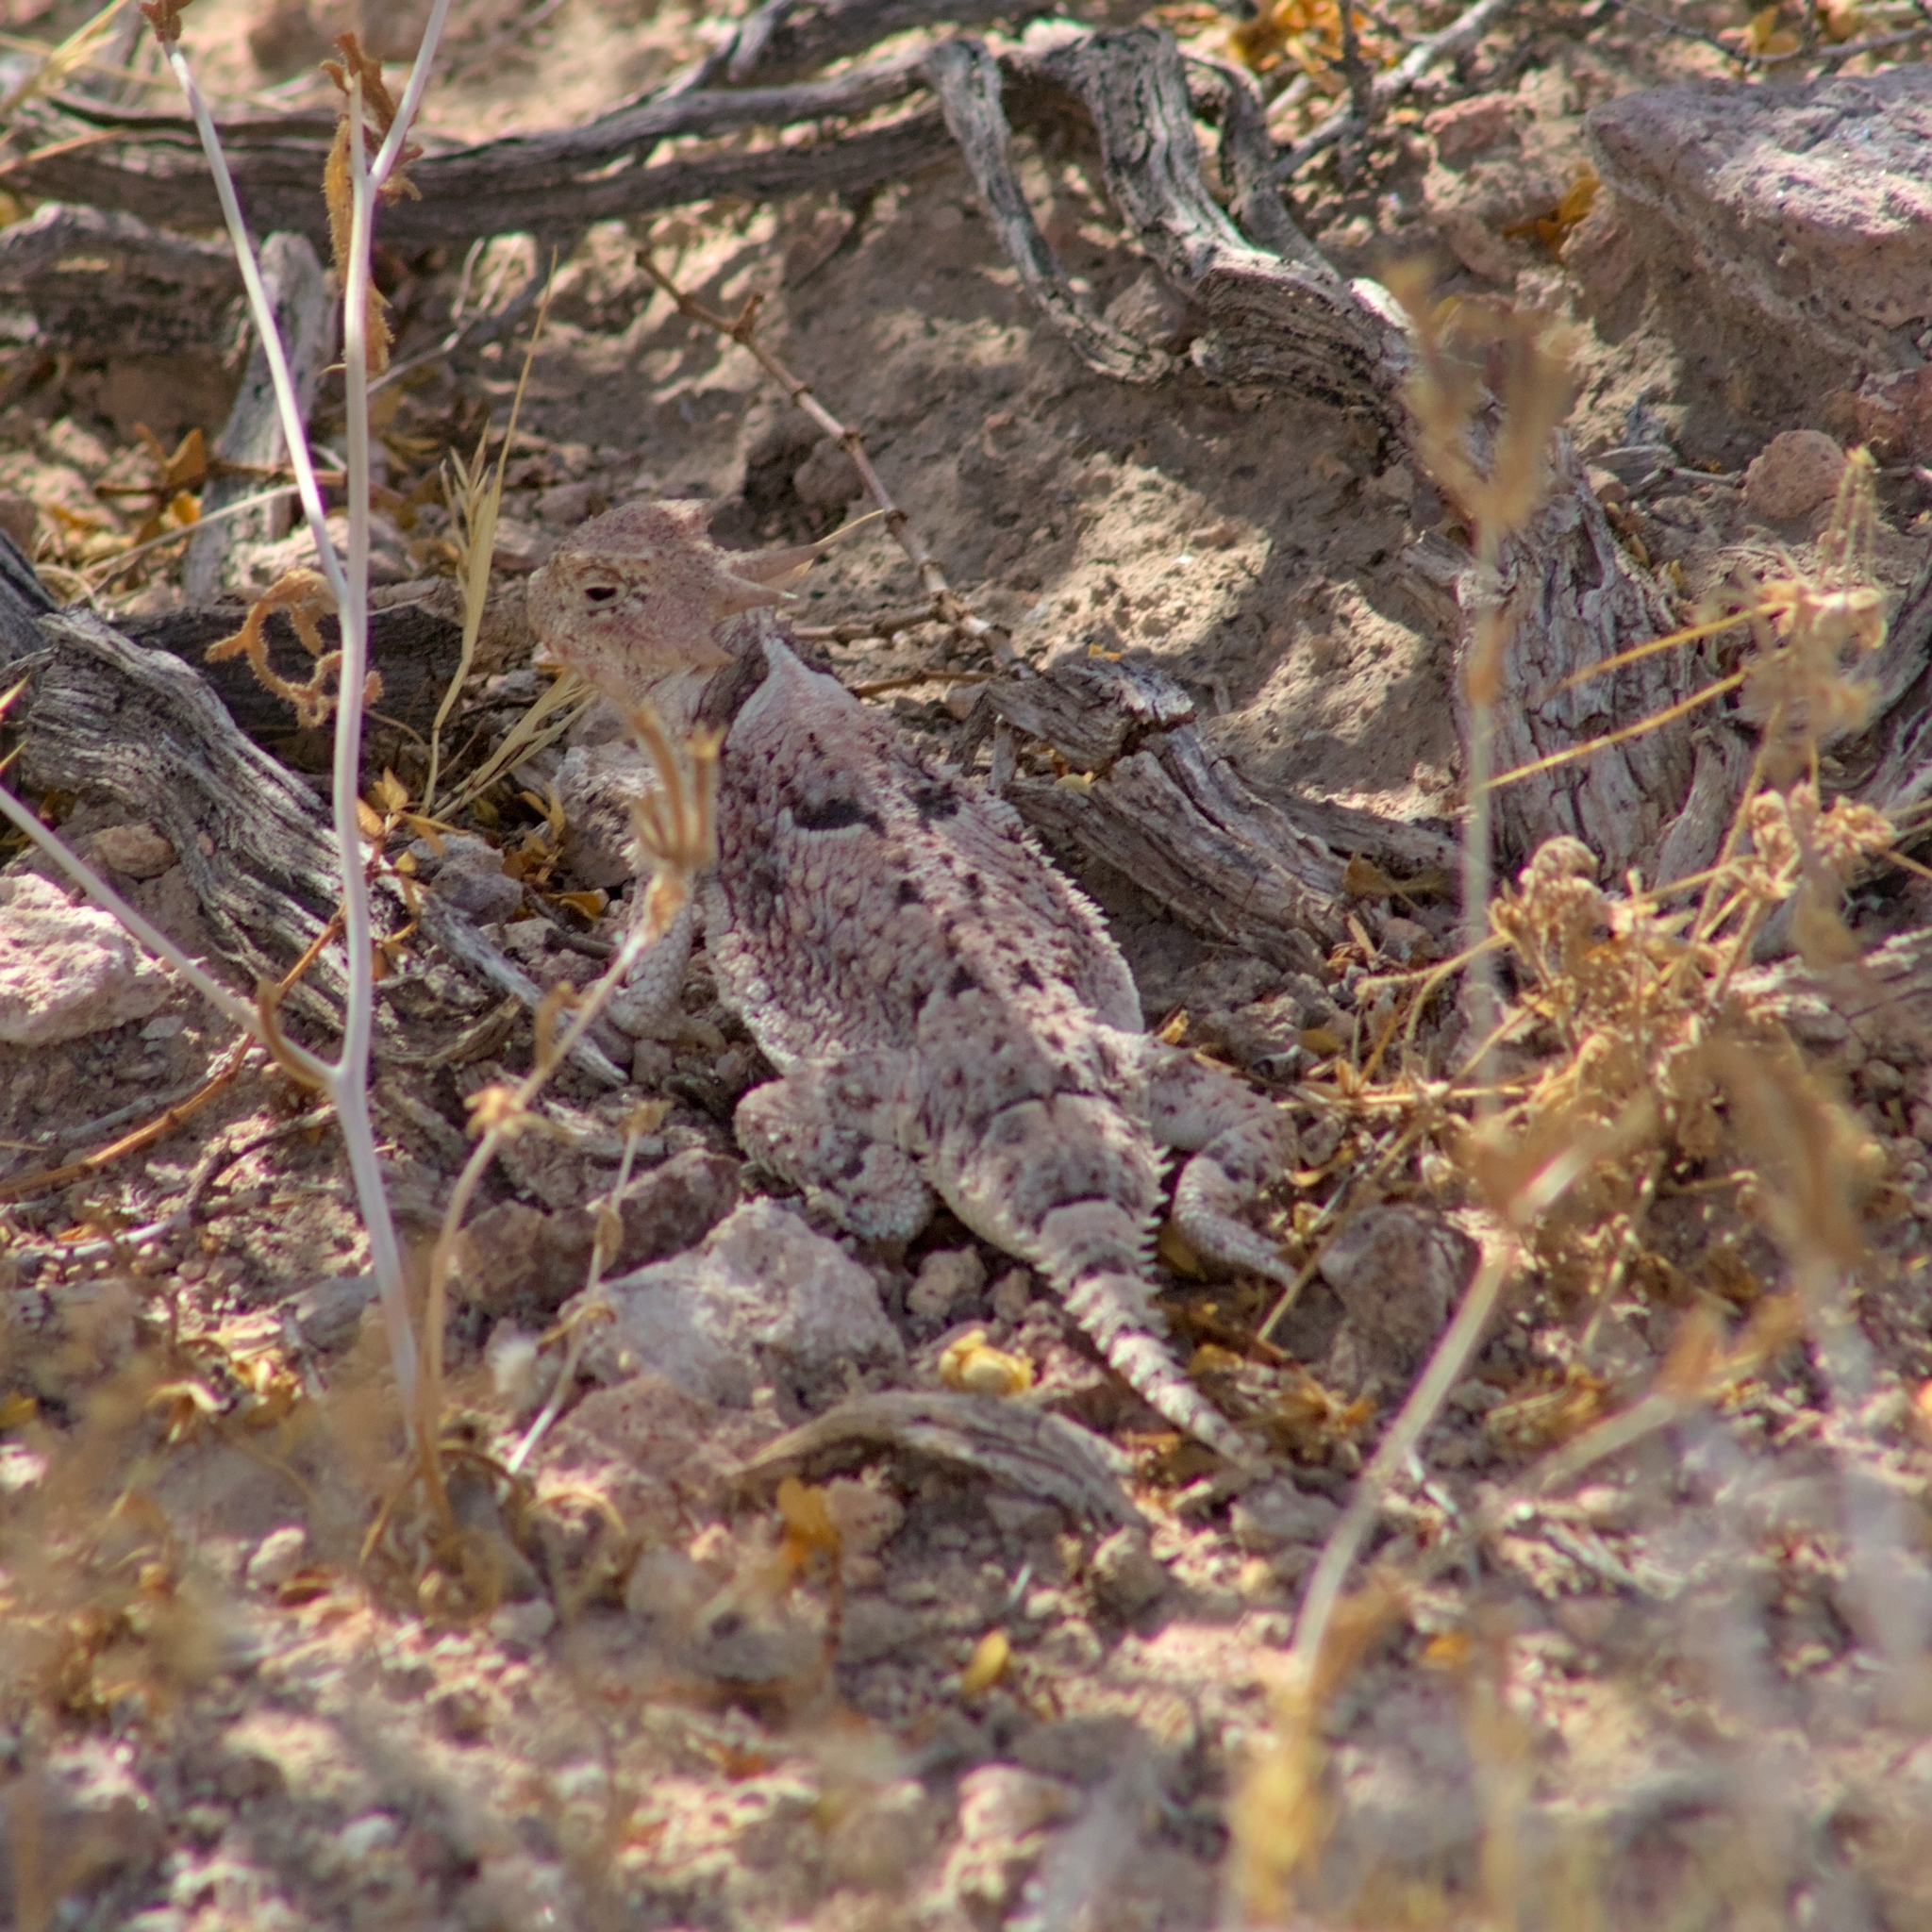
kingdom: Animalia
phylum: Chordata
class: Squamata
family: Phrynosomatidae
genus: Phrynosoma
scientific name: Phrynosoma platyrhinos
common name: Desert horned lizard
